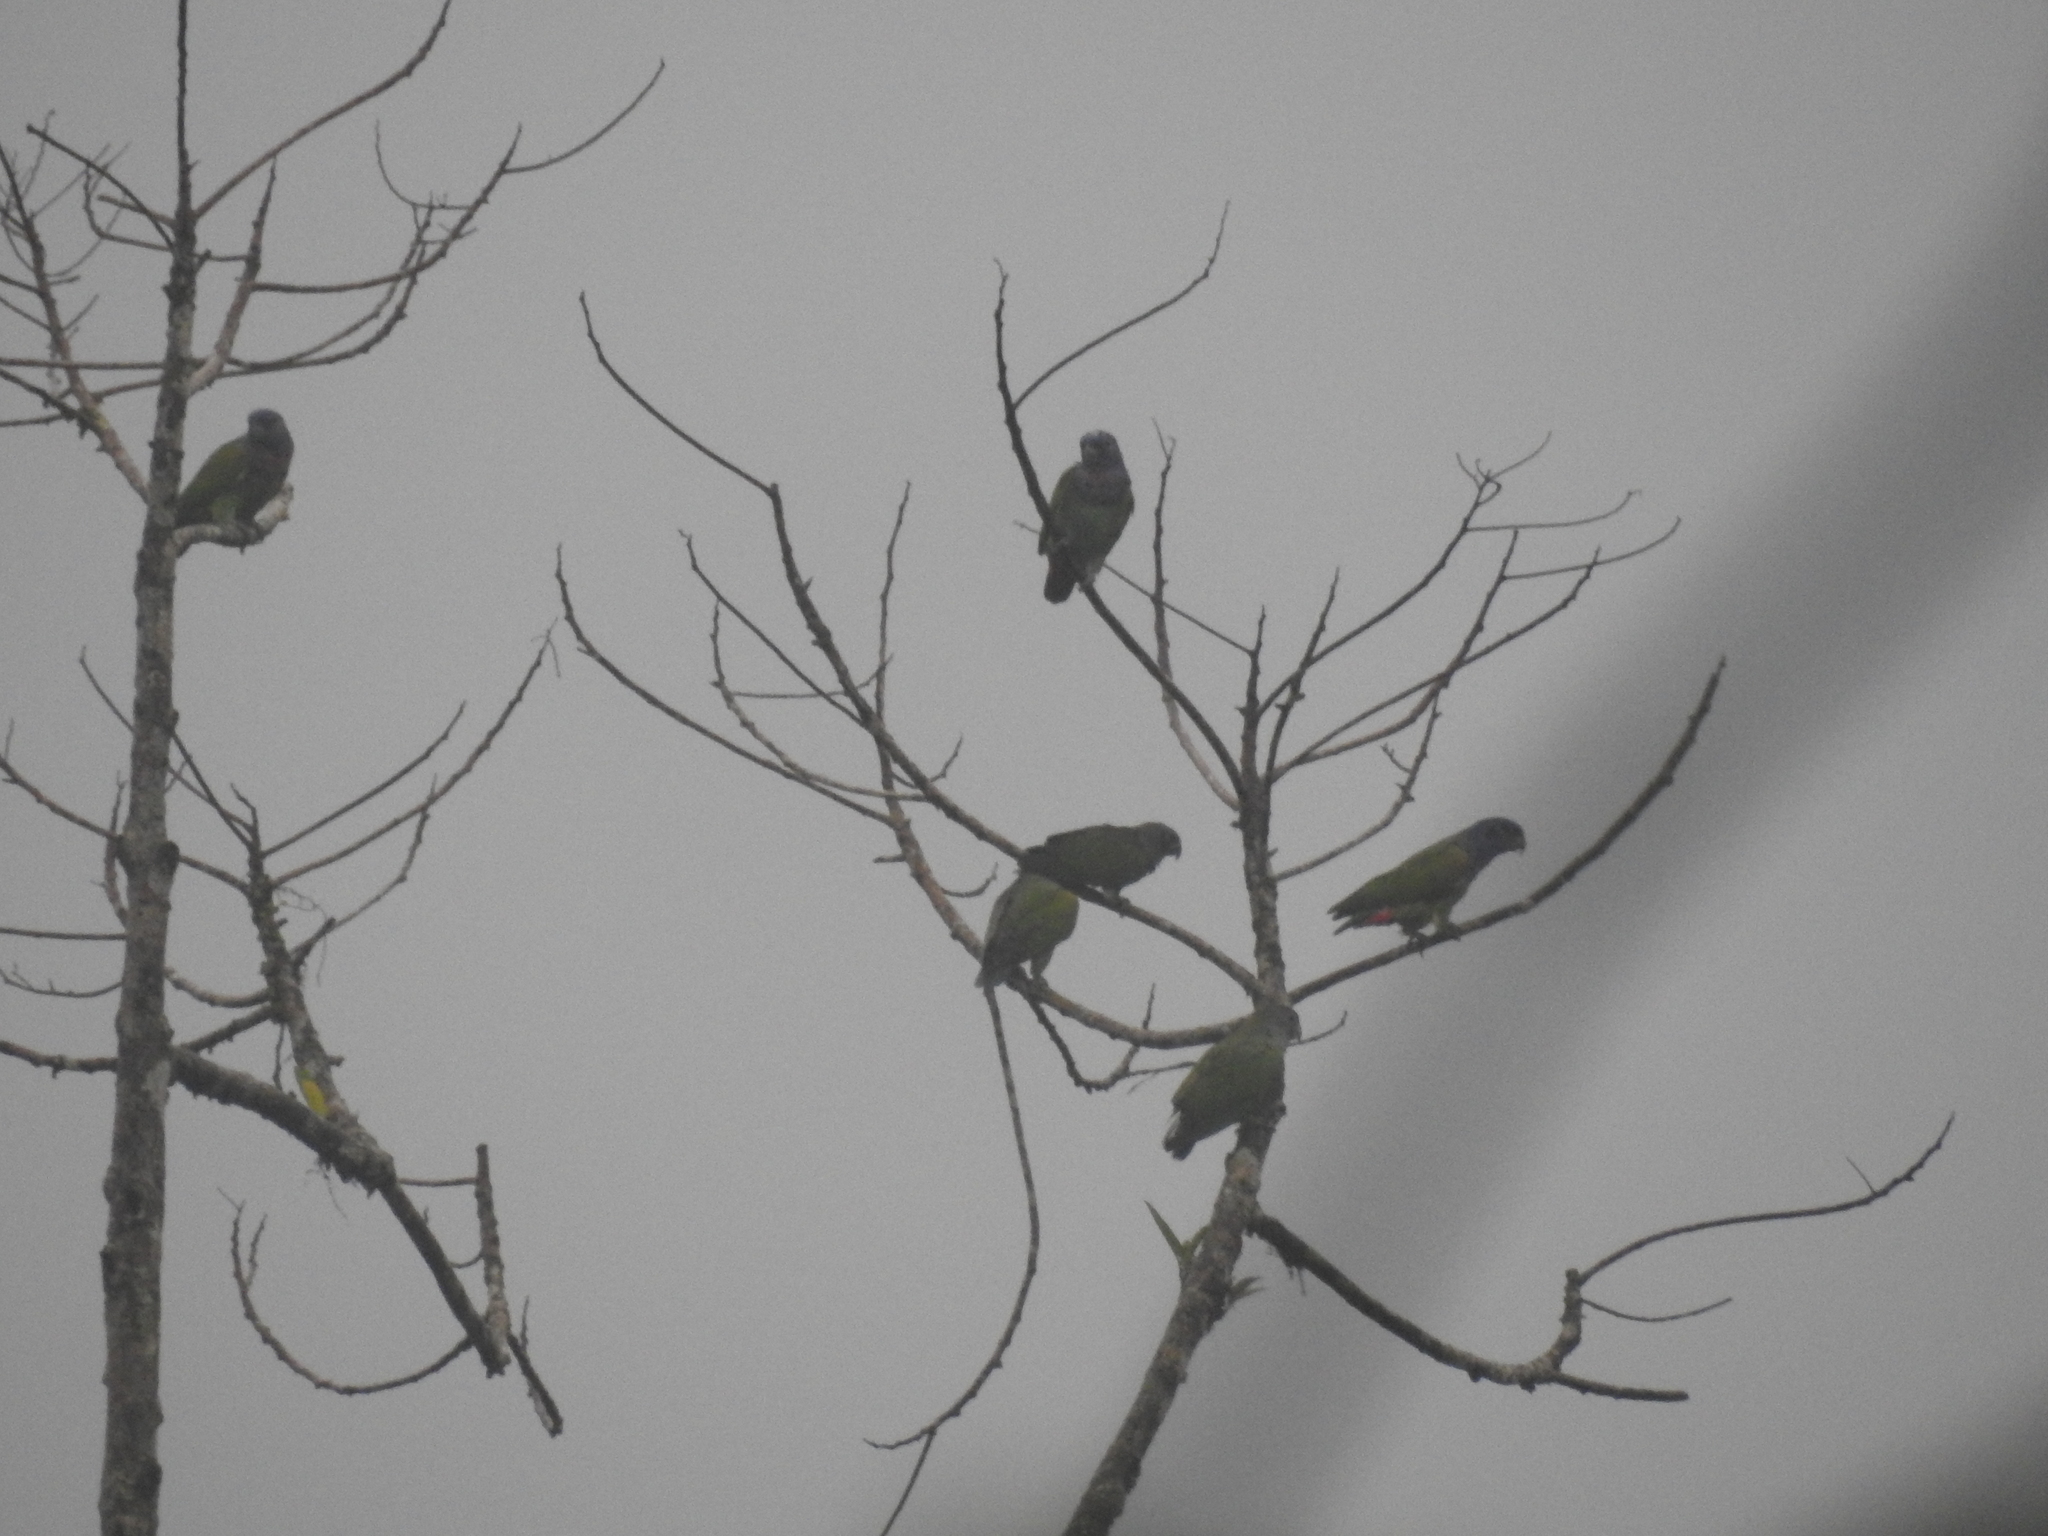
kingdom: Animalia
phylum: Chordata
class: Aves
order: Psittaciformes
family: Psittacidae
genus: Pionus
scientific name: Pionus menstruus
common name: Blue-headed parrot
